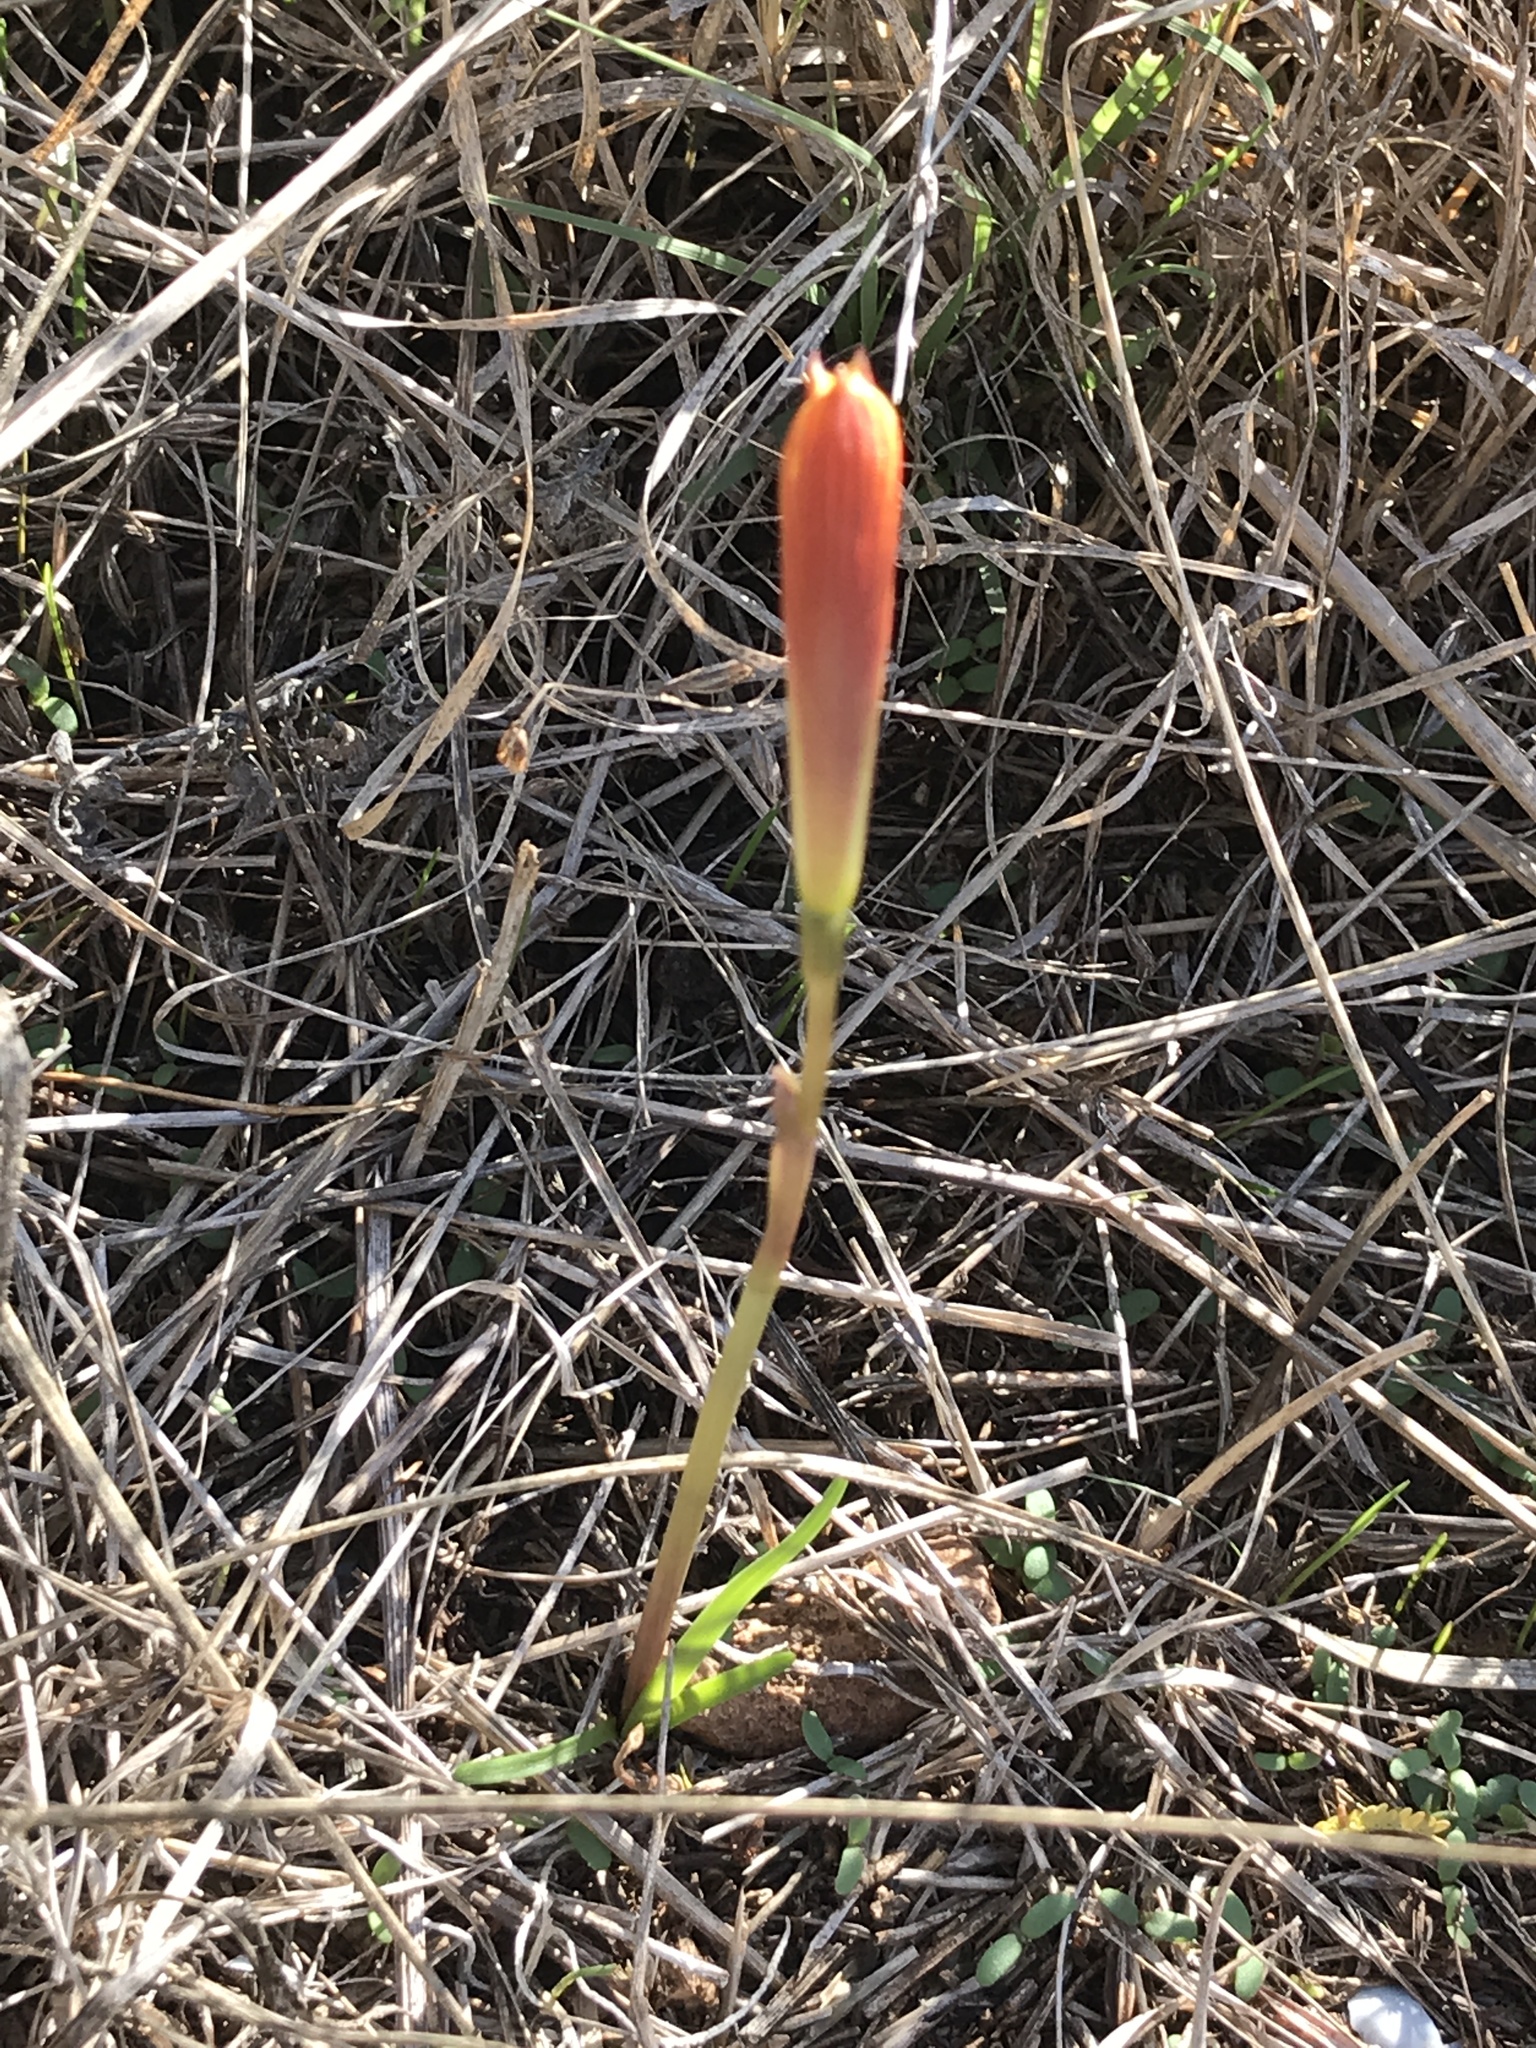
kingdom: Plantae
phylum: Tracheophyta
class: Liliopsida
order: Asparagales
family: Amaryllidaceae
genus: Zephyranthes
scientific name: Zephyranthes tubispatha
